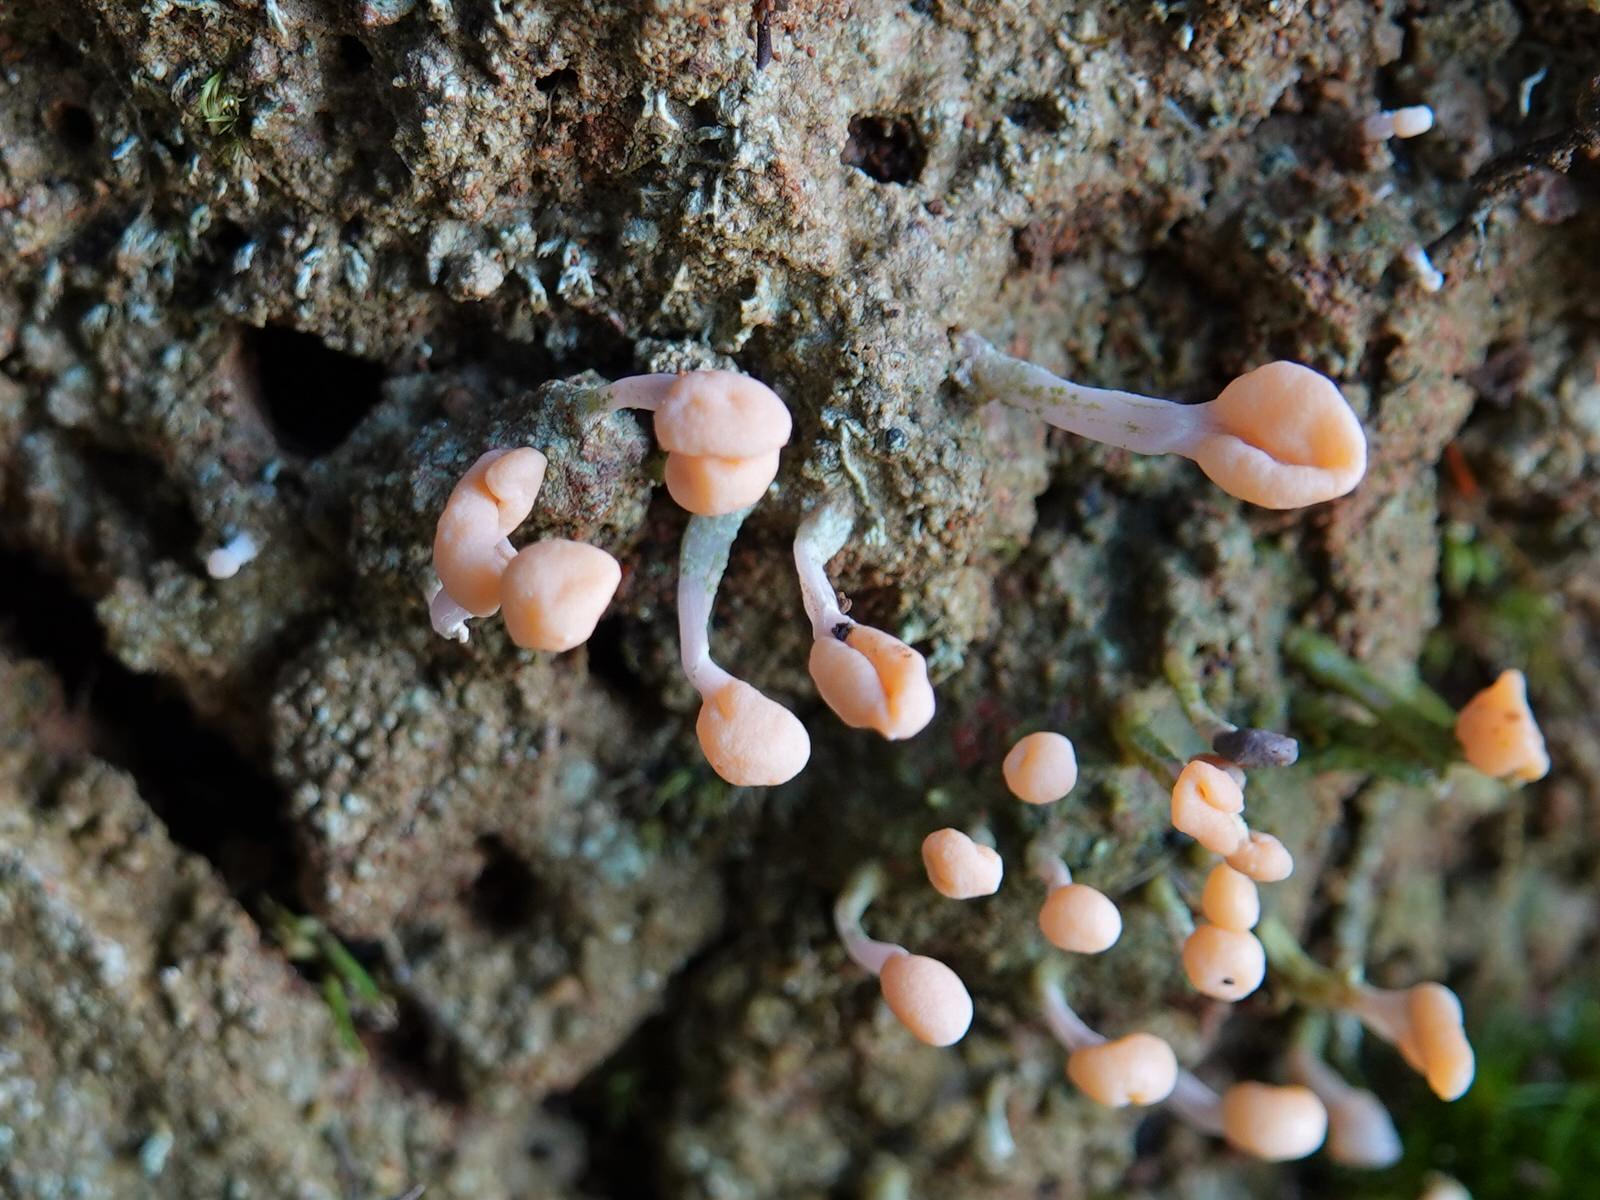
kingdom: Fungi
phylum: Ascomycota
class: Lecanoromycetes
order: Pertusariales
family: Icmadophilaceae
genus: Dibaeis
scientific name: Dibaeis arcuata
